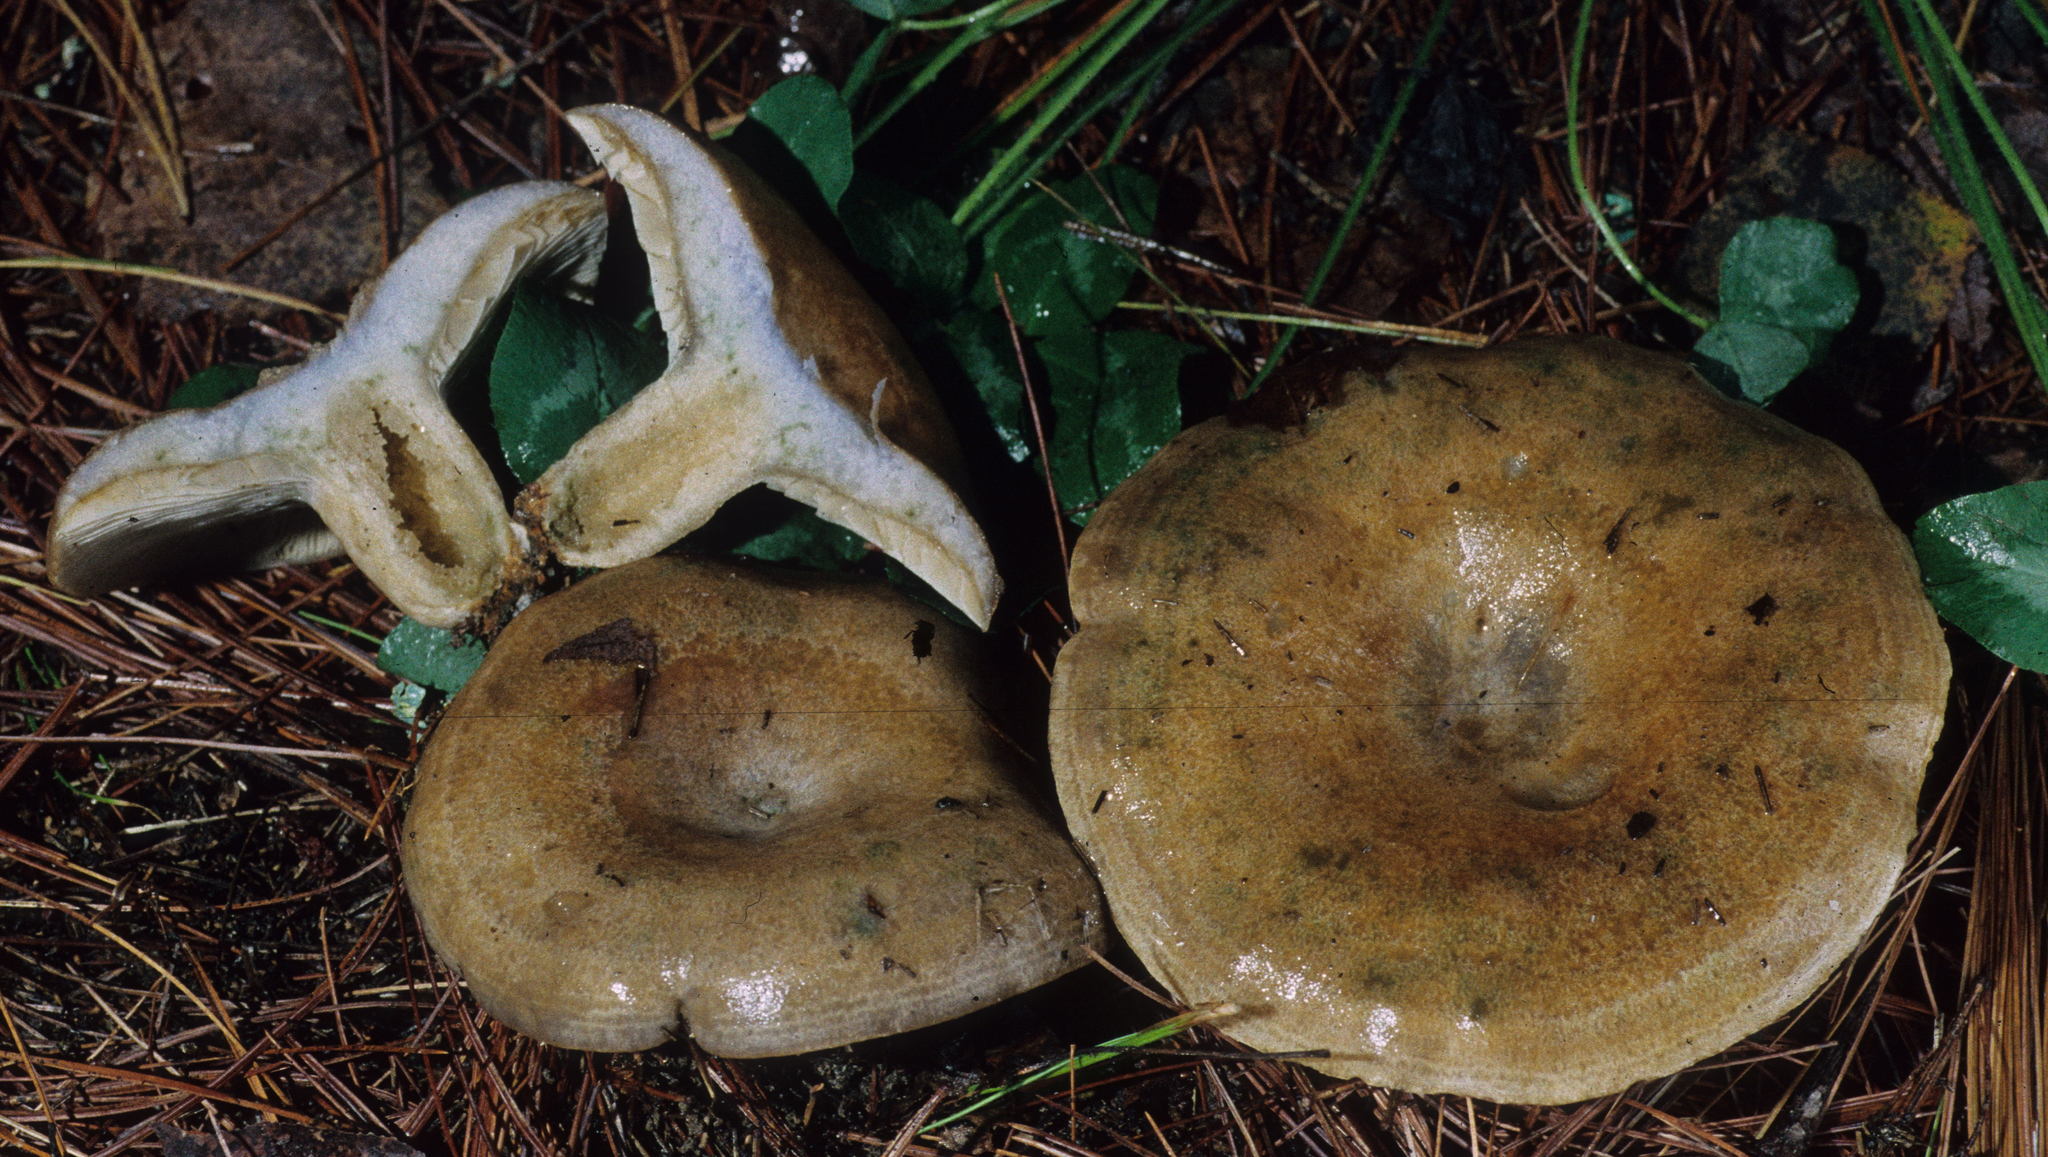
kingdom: Fungi
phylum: Basidiomycota
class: Agaricomycetes
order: Russulales
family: Russulaceae
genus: Lactarius
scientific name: Lactarius chelidonium
